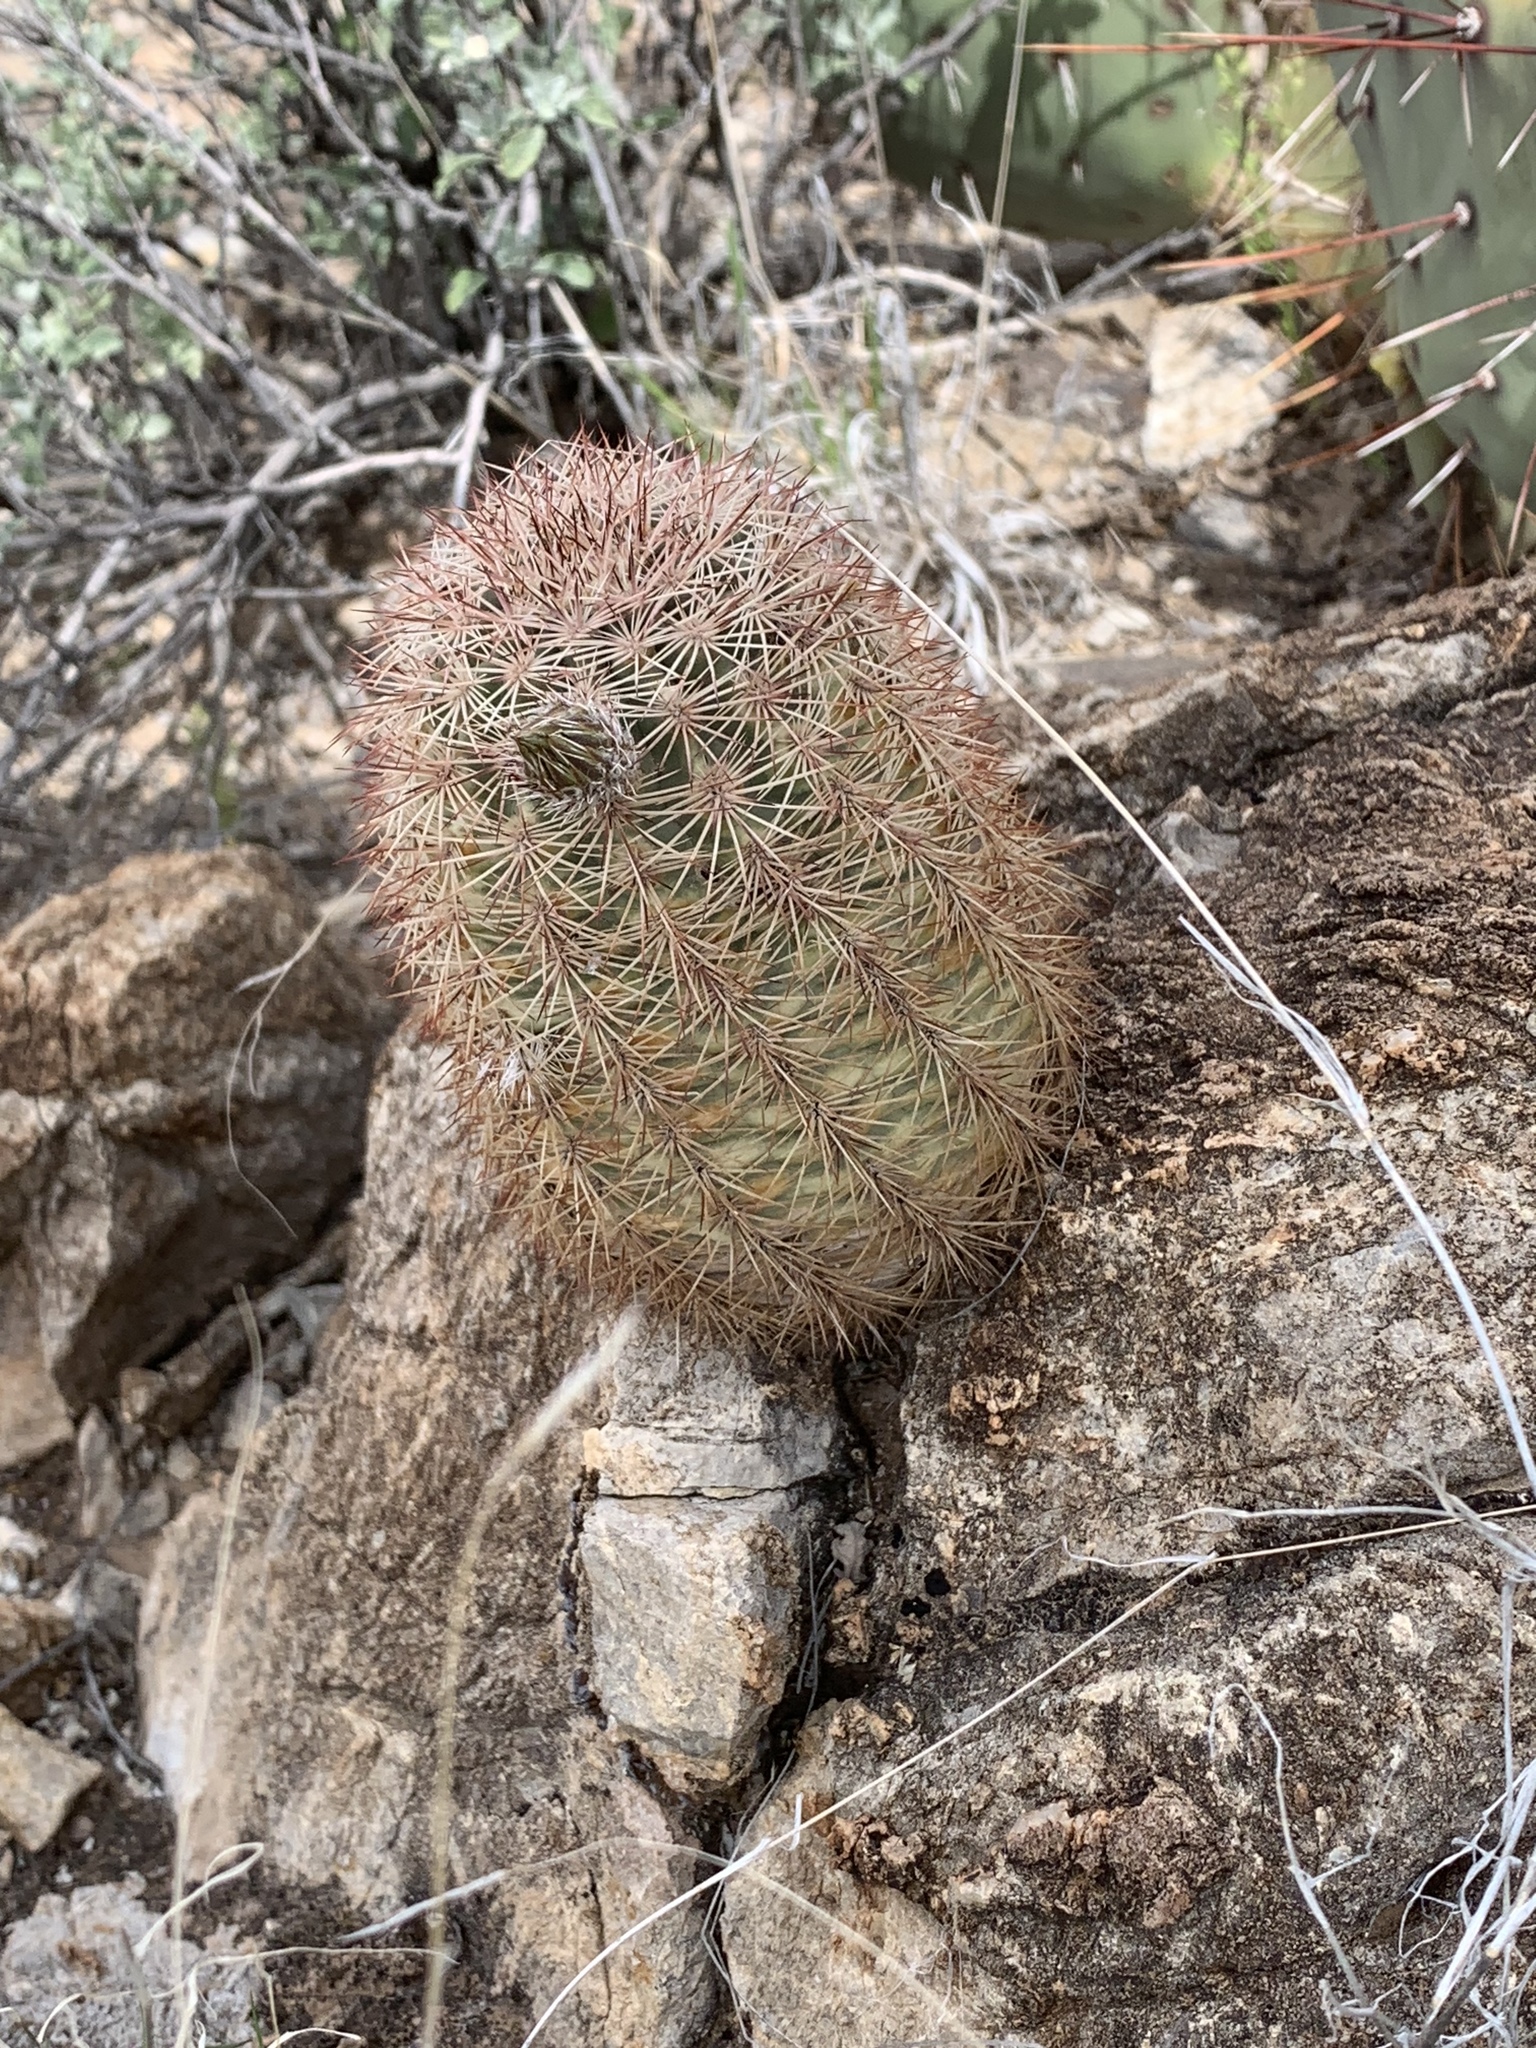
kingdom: Plantae
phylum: Tracheophyta
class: Magnoliopsida
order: Caryophyllales
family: Cactaceae
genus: Echinocereus
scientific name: Echinocereus dasyacanthus
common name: Spiny hedgehog cactus
